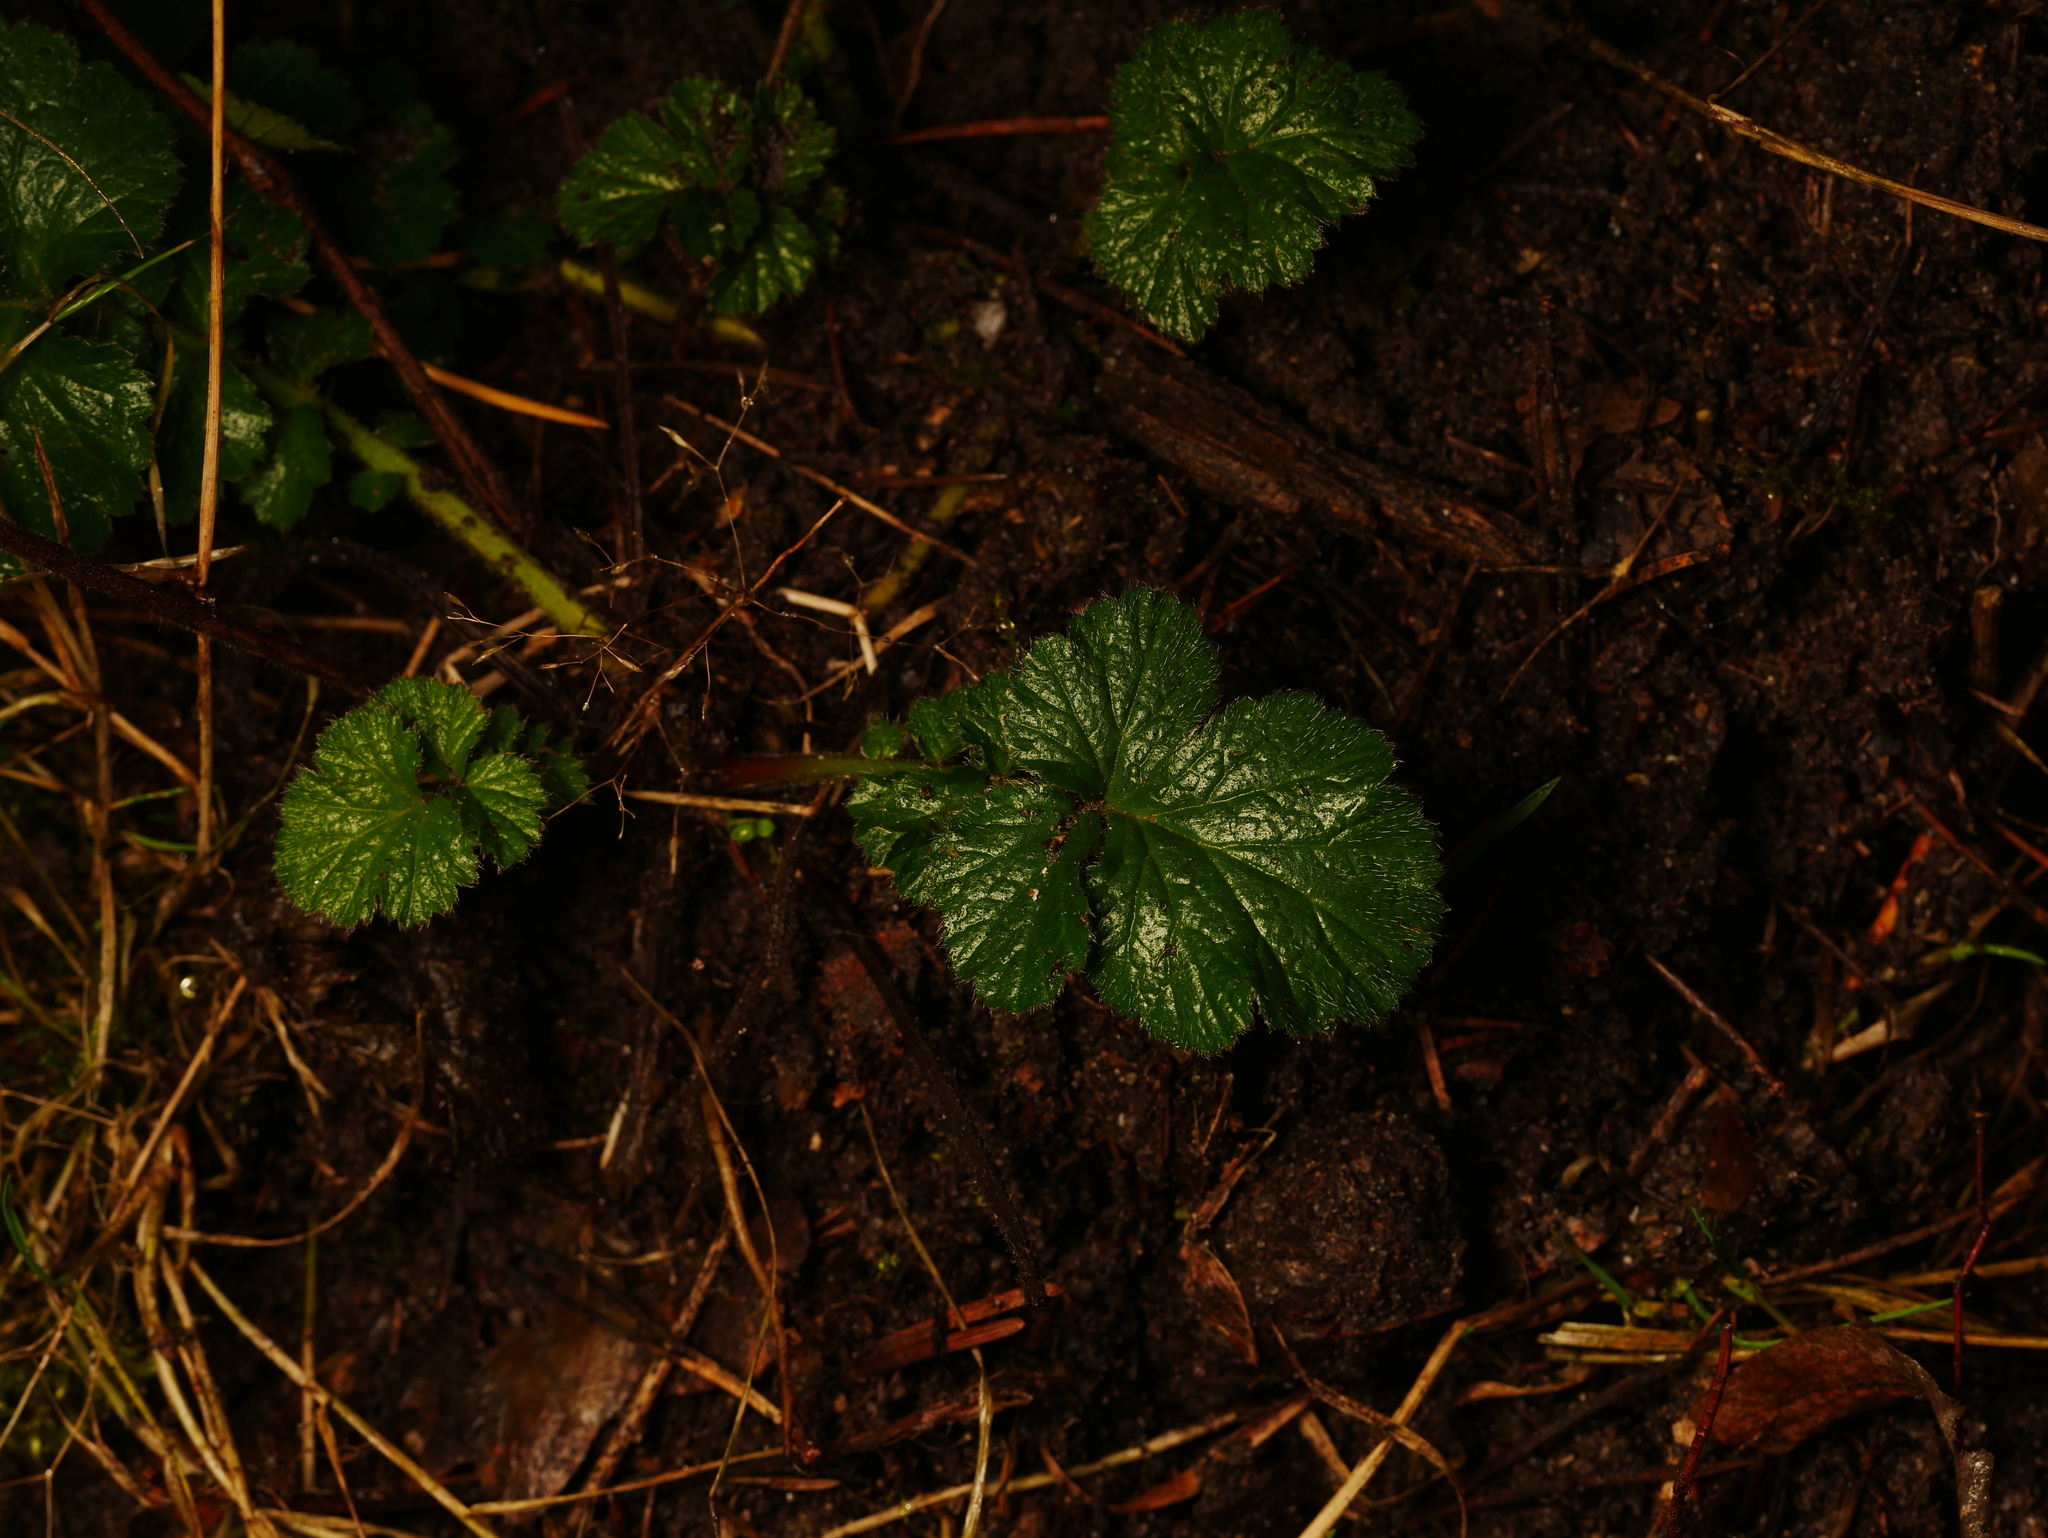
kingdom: Plantae
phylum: Tracheophyta
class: Magnoliopsida
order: Rosales
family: Rosaceae
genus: Geum
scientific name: Geum urbanum
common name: Wood avens
